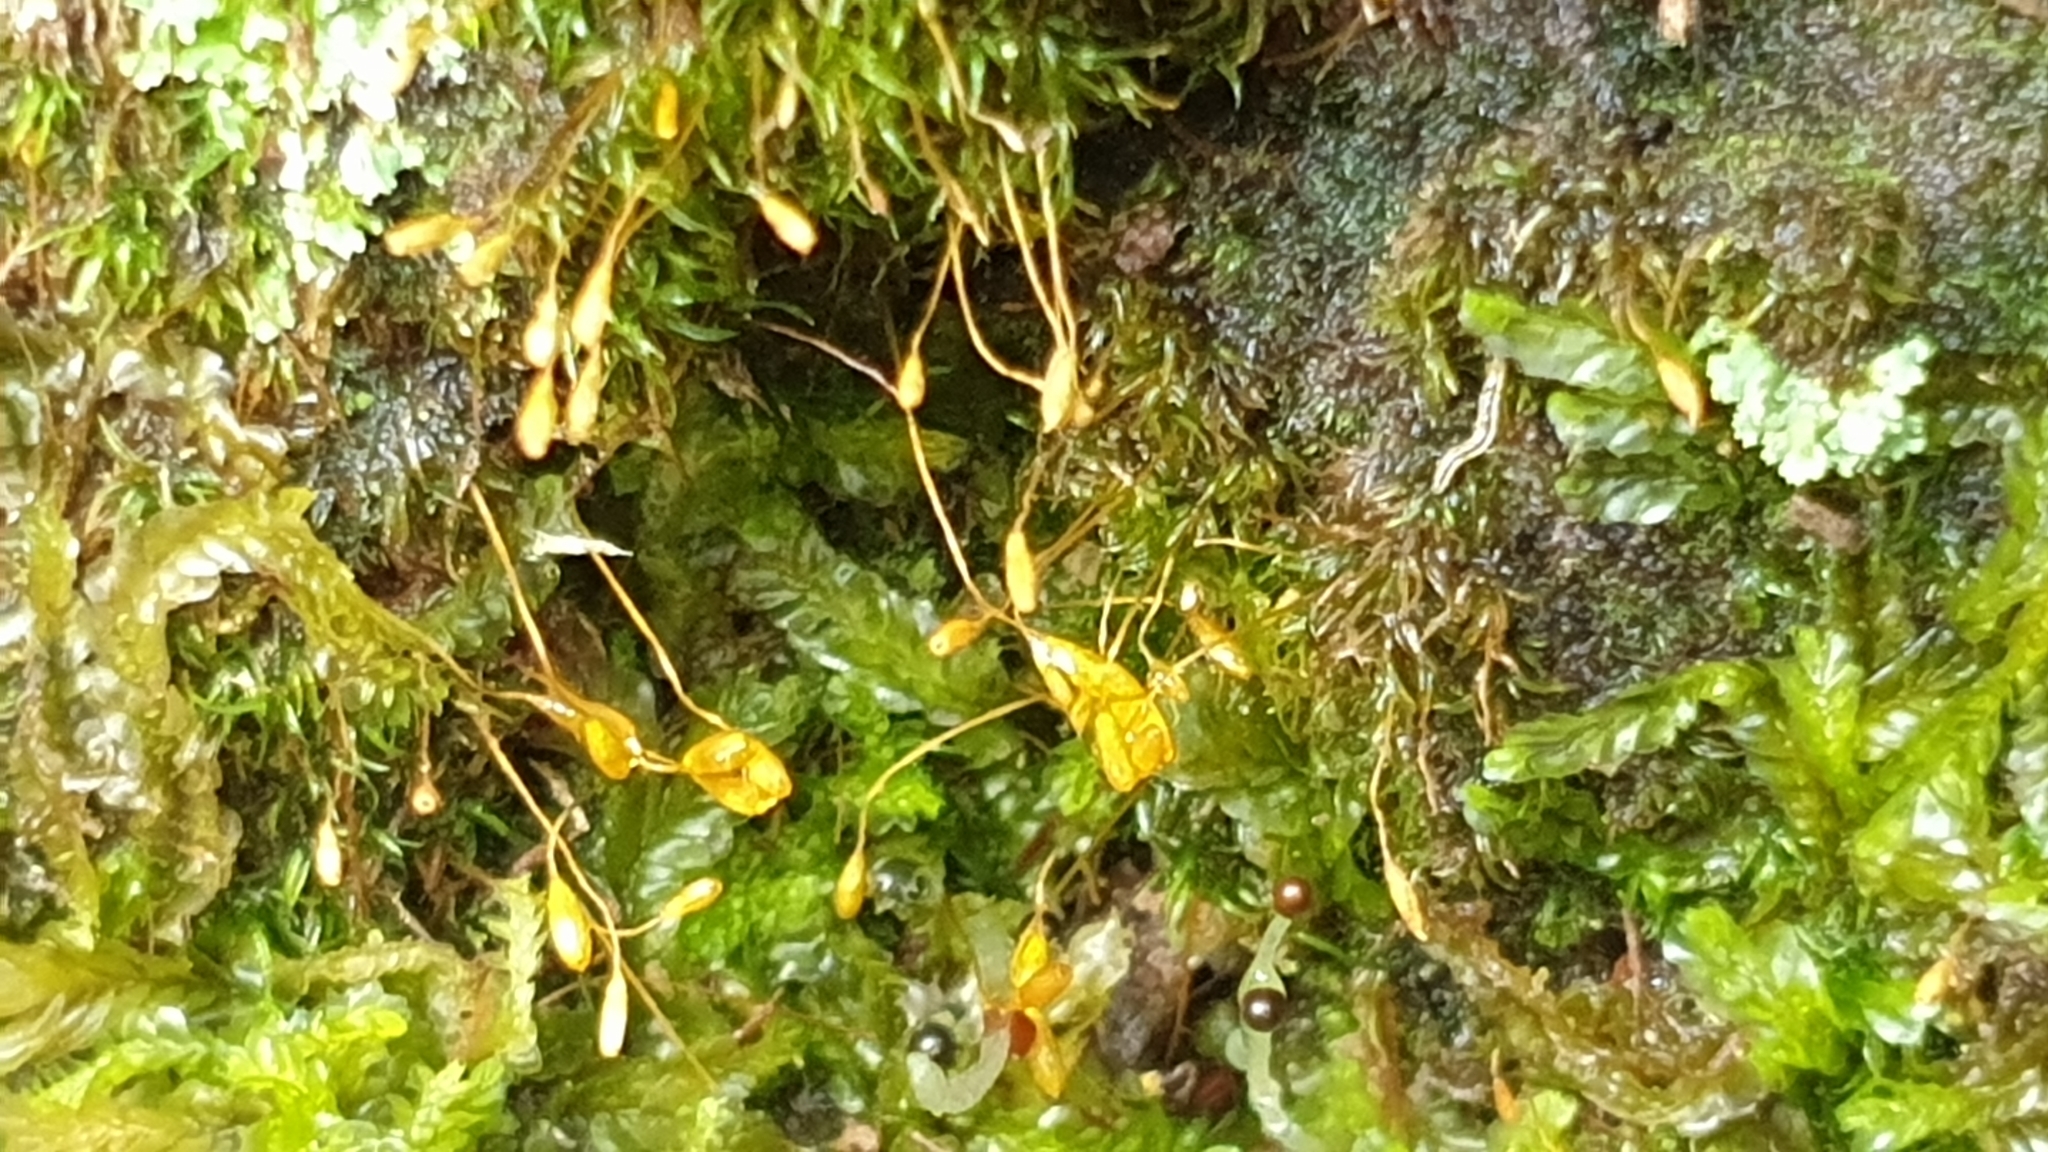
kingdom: Plantae
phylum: Bryophyta
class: Bryopsida
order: Orthodontiales
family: Orthodontiaceae
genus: Orthodontium
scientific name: Orthodontium lineare
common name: Cape thread-moss
